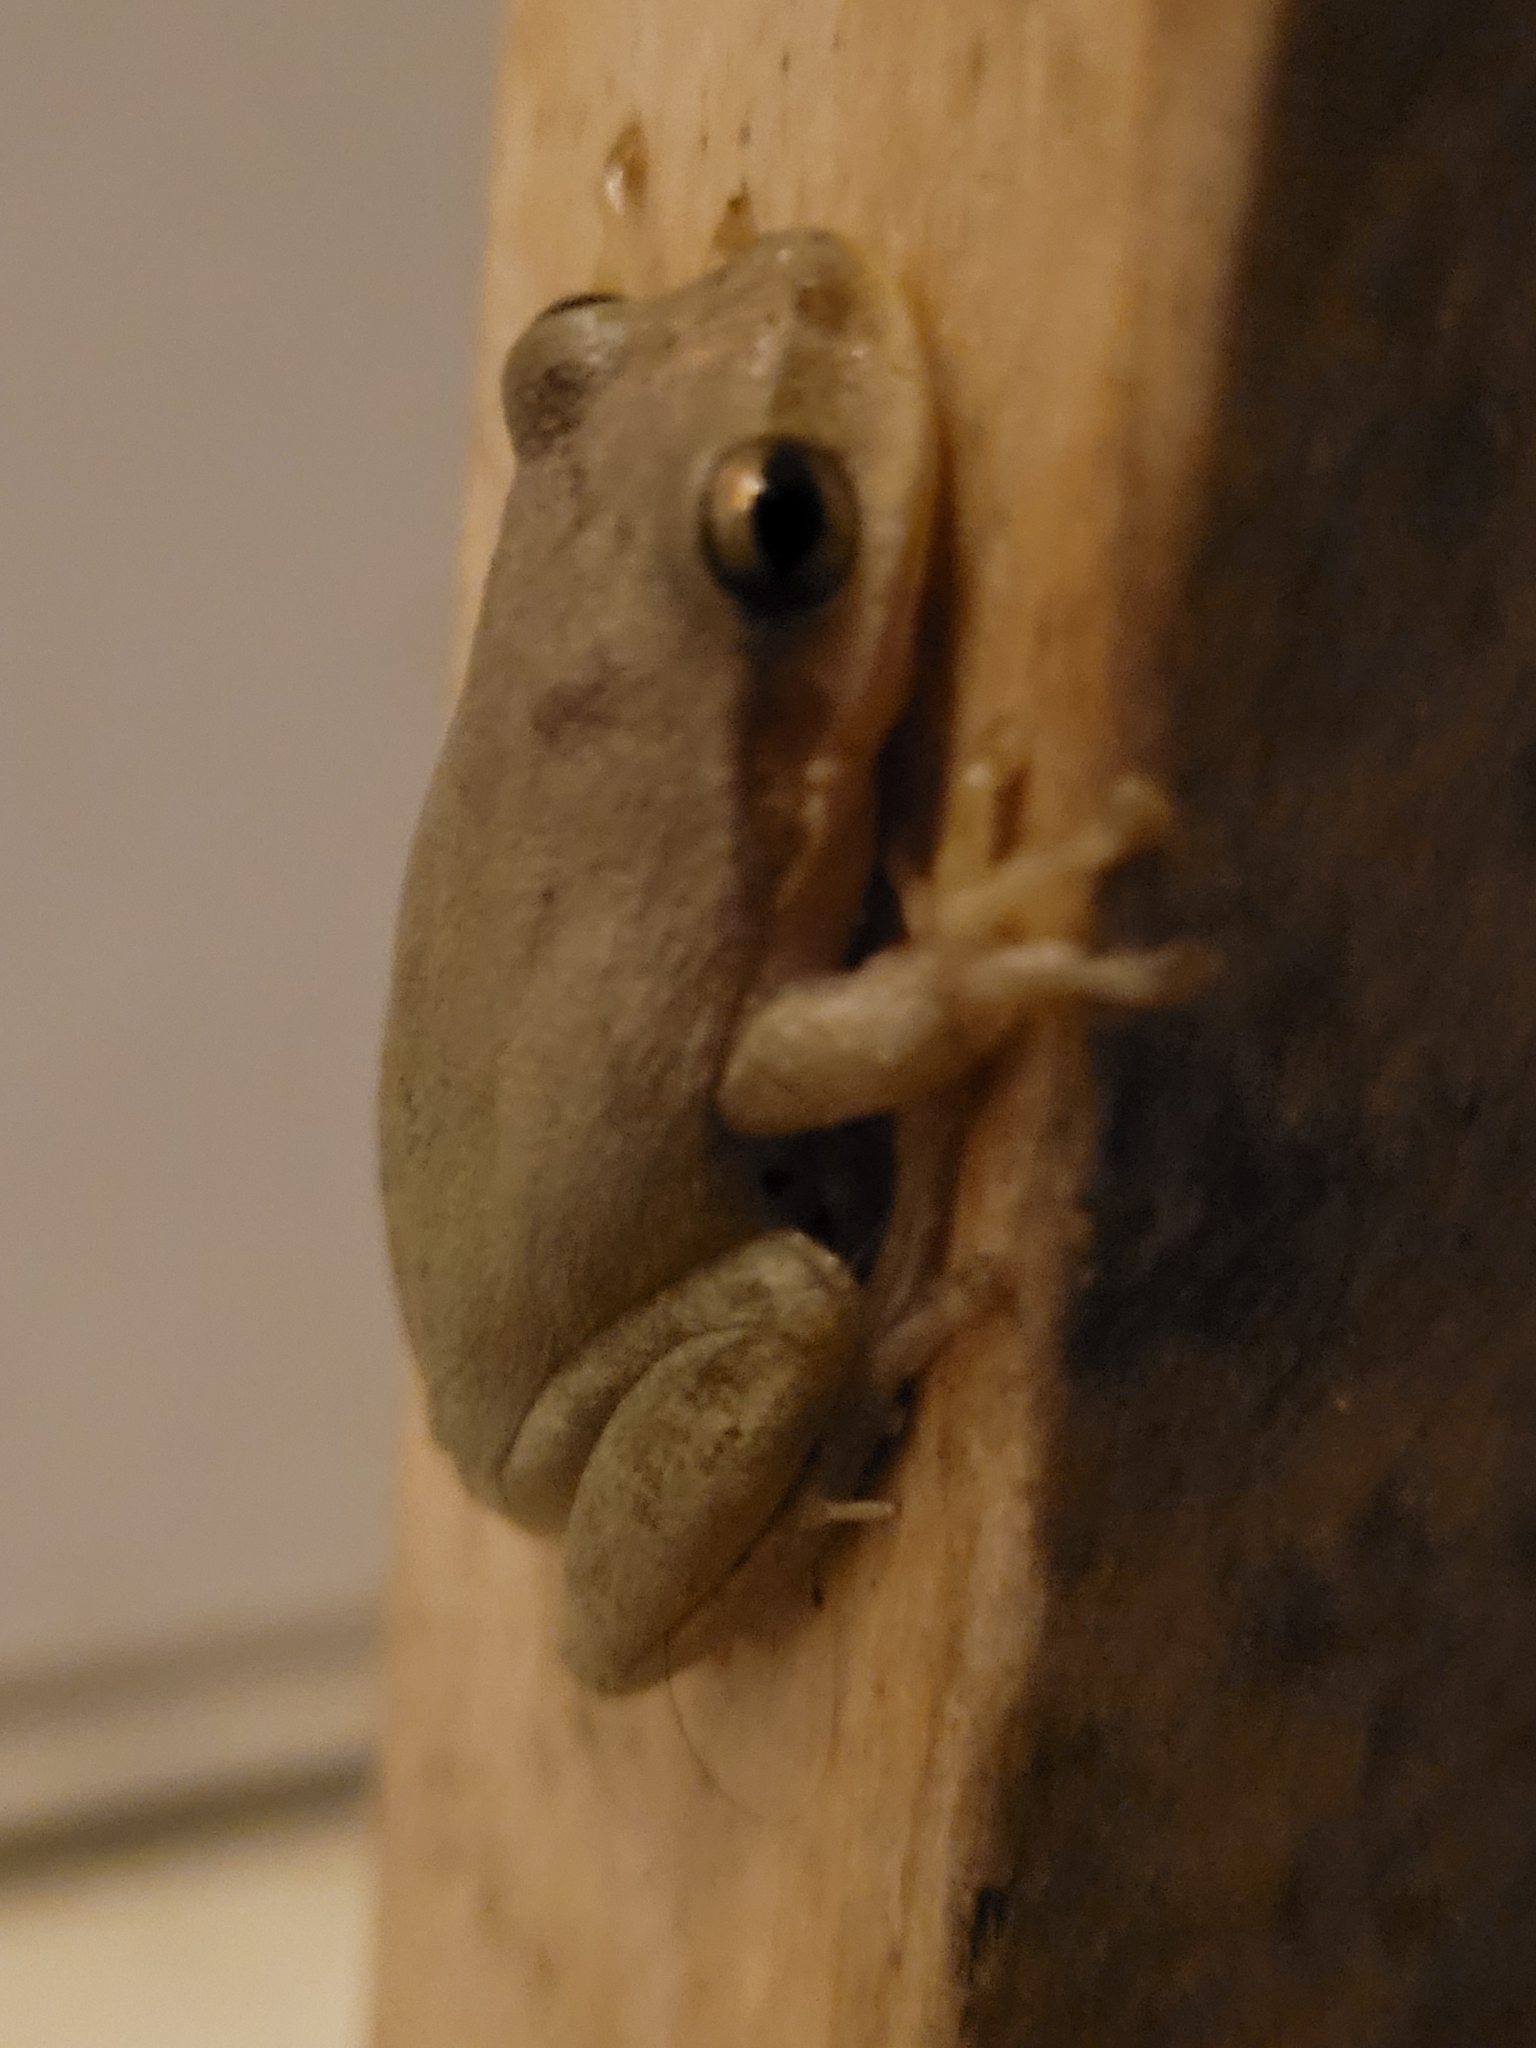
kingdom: Animalia
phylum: Chordata
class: Amphibia
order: Anura
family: Hylidae
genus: Dryophytes
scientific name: Dryophytes squirellus
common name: Squirrel treefrog
